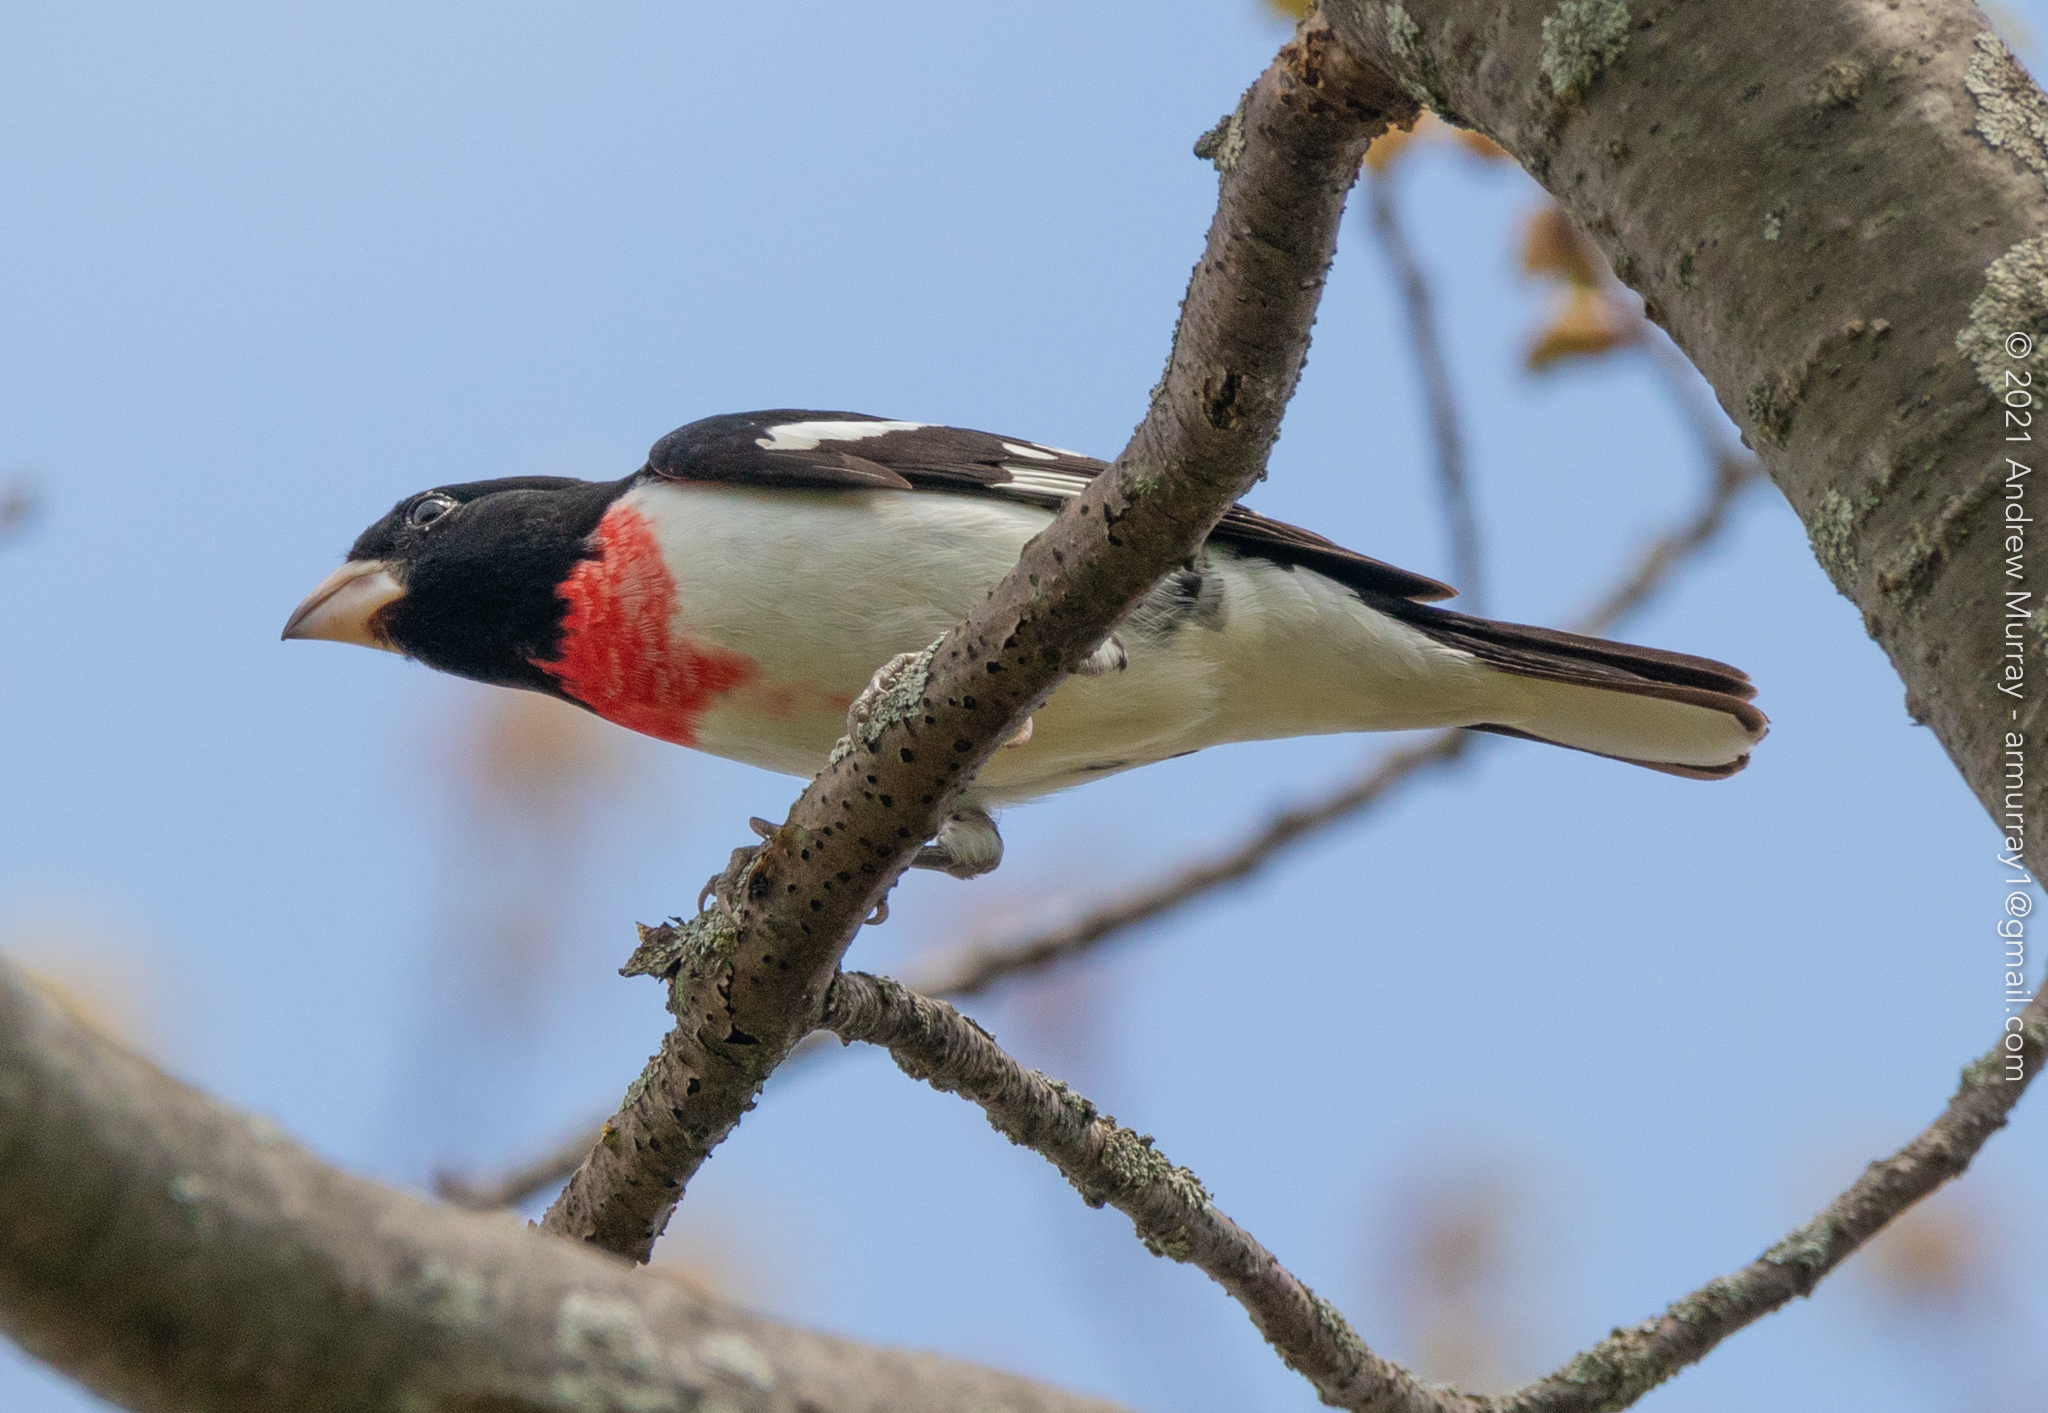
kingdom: Animalia
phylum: Chordata
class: Aves
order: Passeriformes
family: Cardinalidae
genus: Pheucticus
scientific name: Pheucticus ludovicianus
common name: Rose-breasted grosbeak
